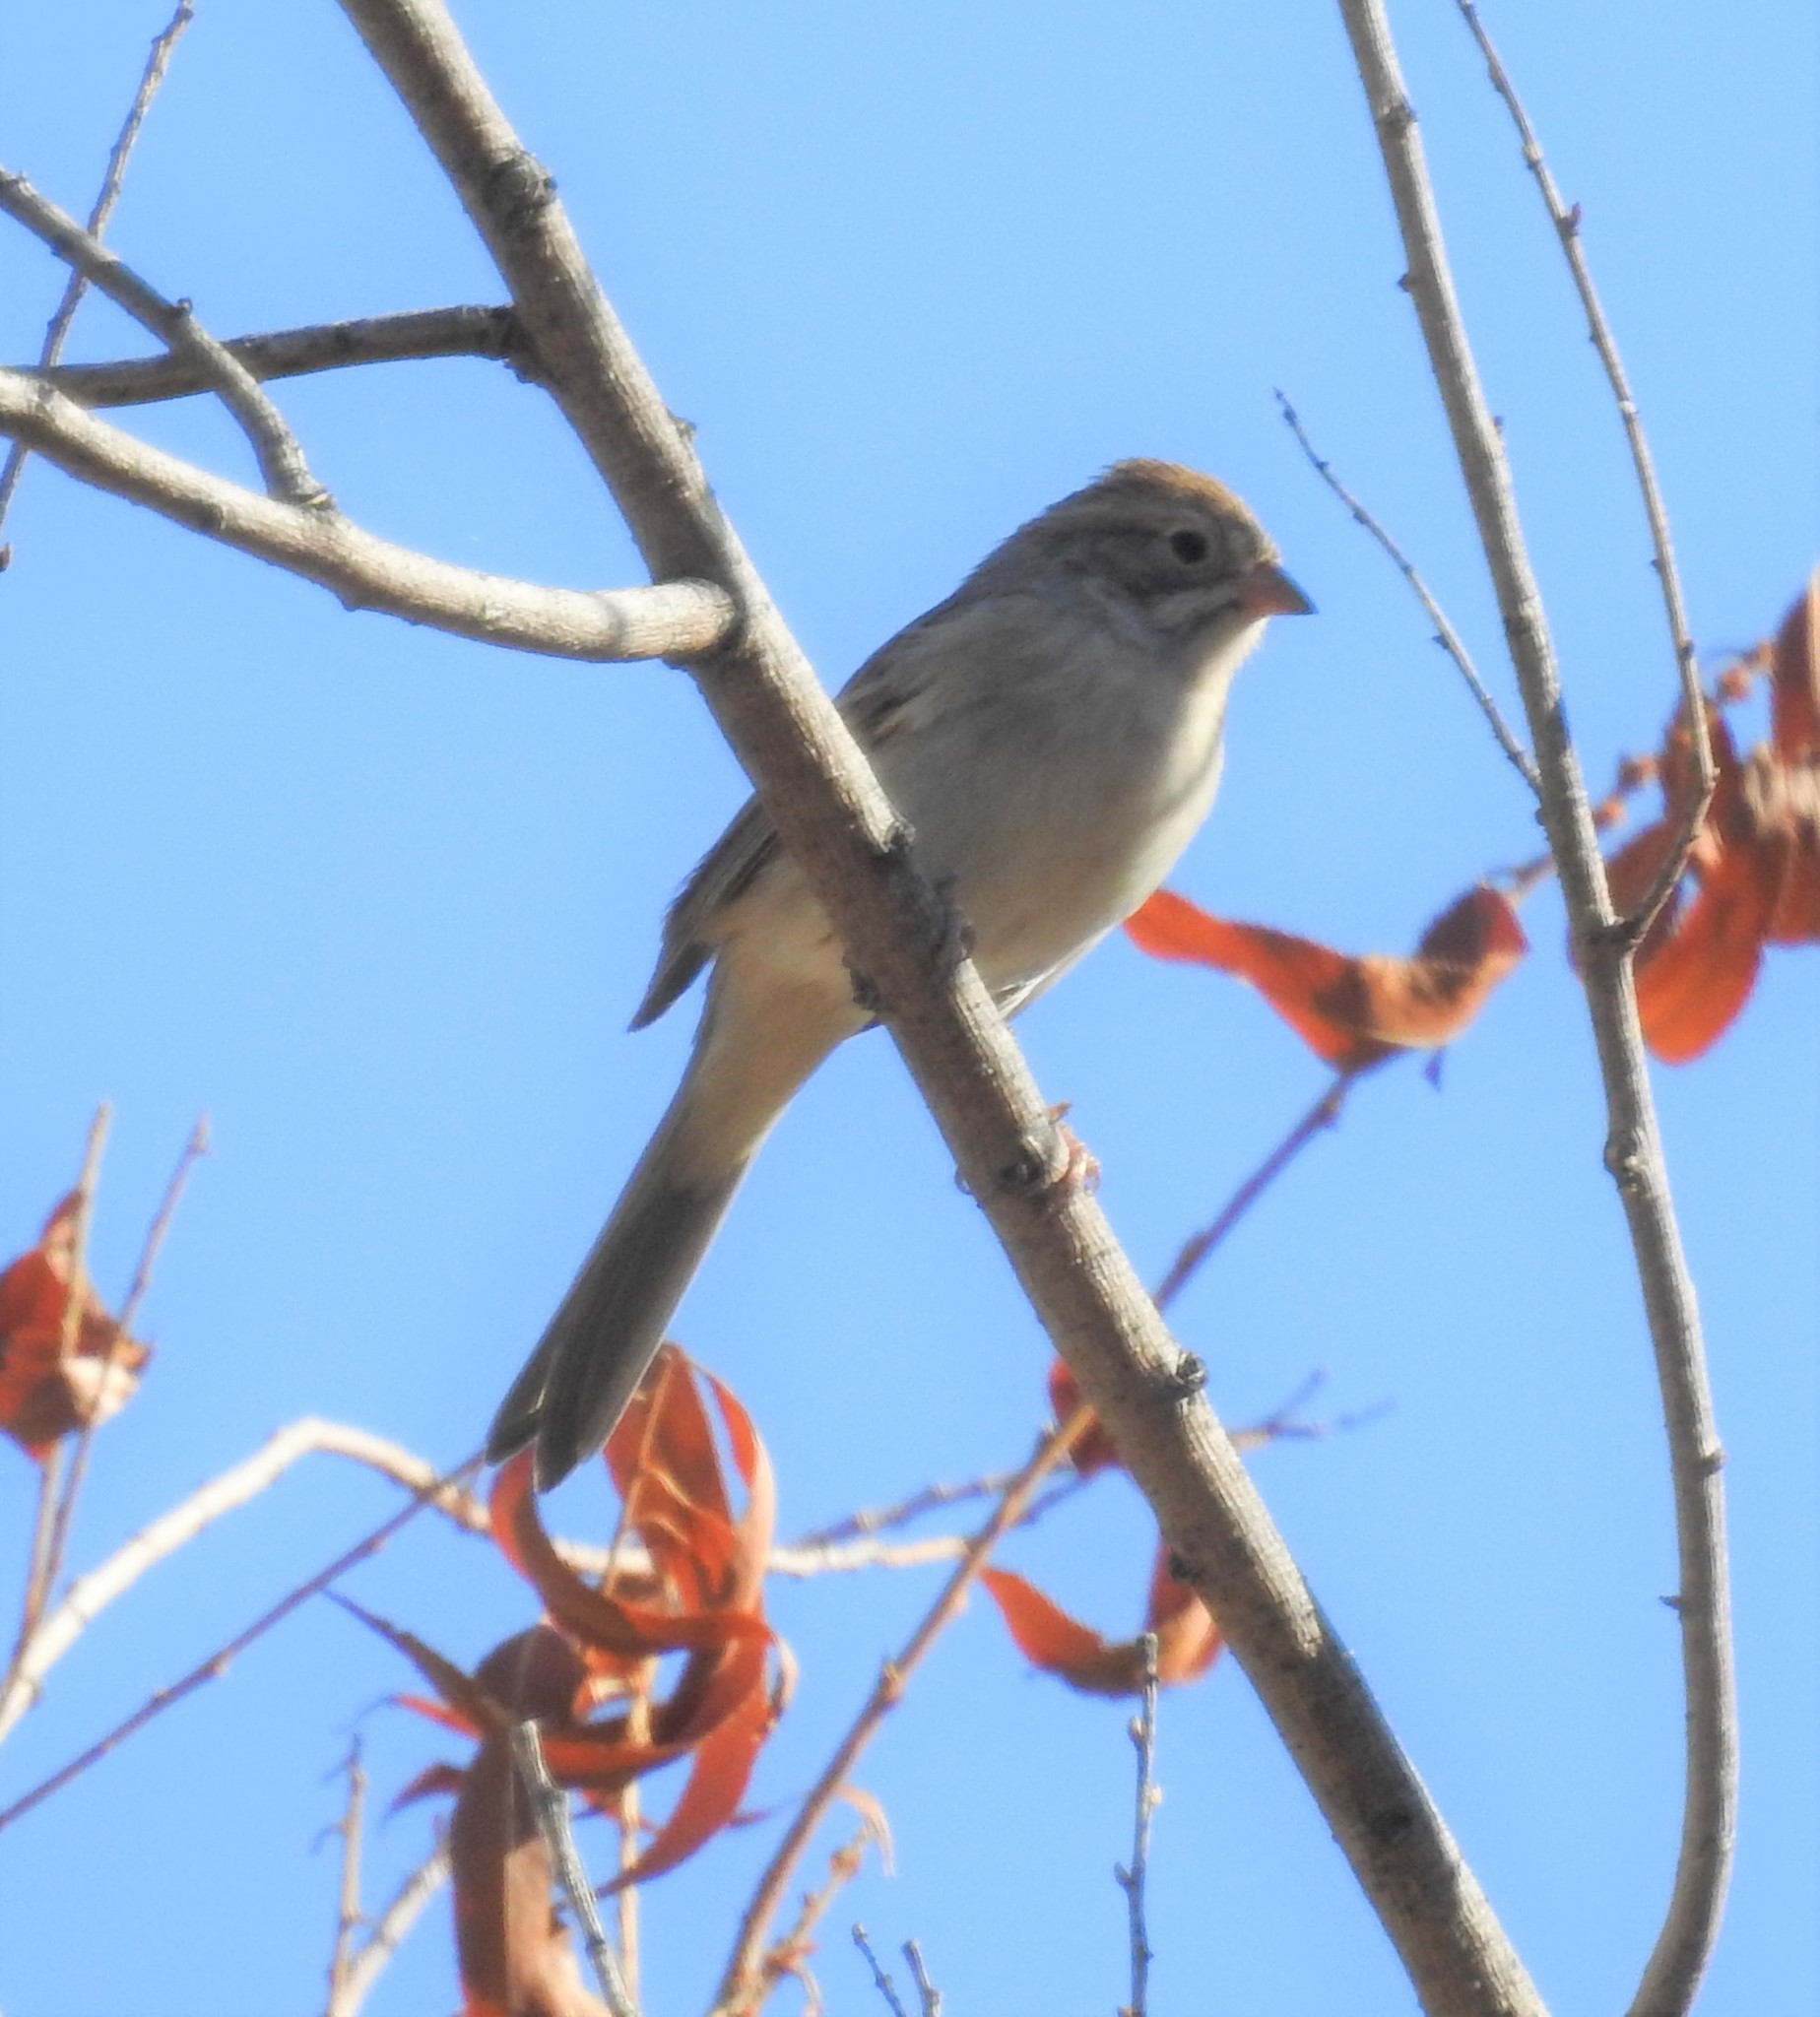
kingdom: Animalia
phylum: Chordata
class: Aves
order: Passeriformes
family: Passerellidae
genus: Spizella
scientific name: Spizella breweri
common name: Brewer's sparrow
